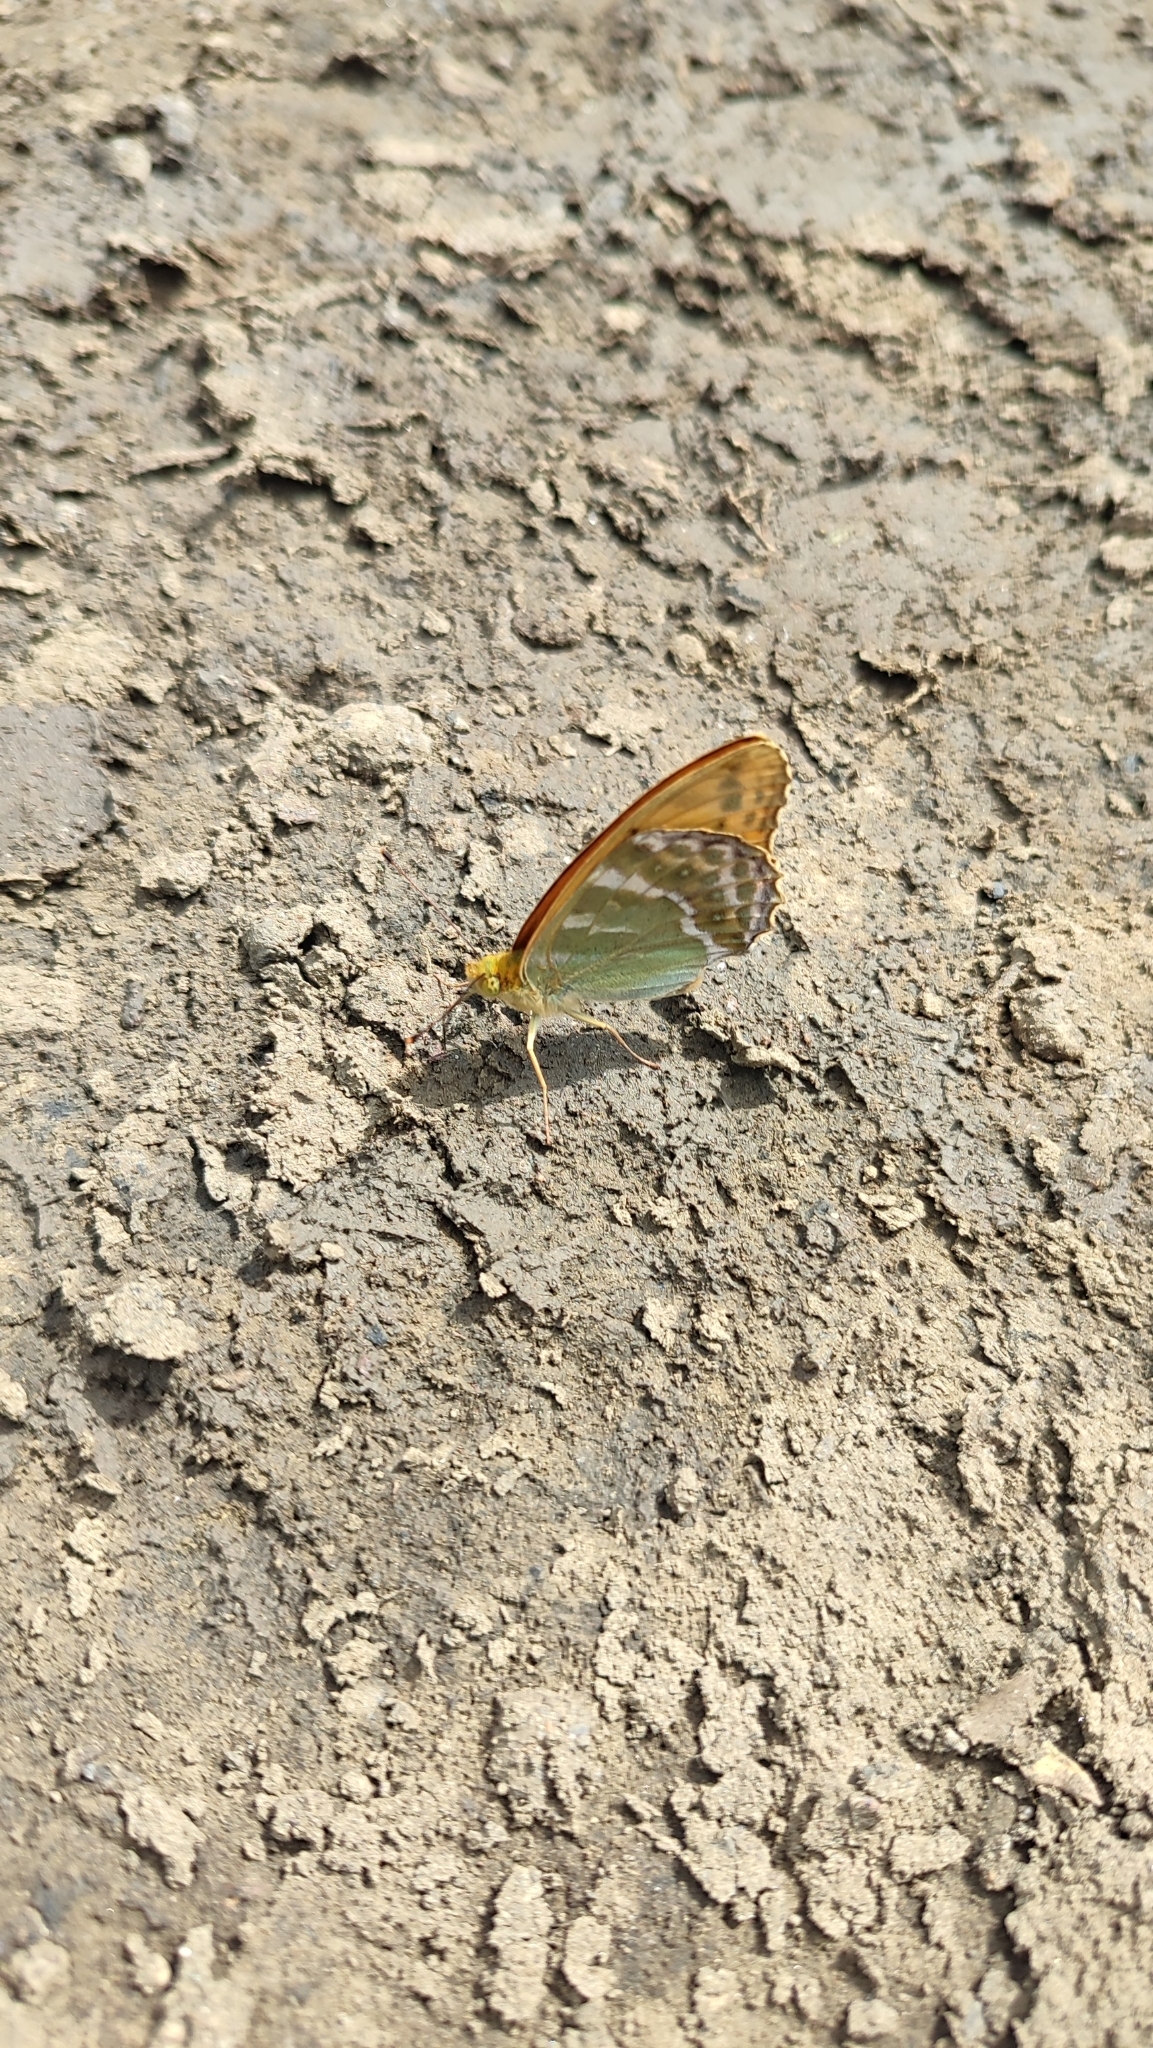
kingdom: Animalia
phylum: Arthropoda
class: Insecta
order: Lepidoptera
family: Nymphalidae
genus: Argynnis
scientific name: Argynnis paphia
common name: Silver-washed fritillary
